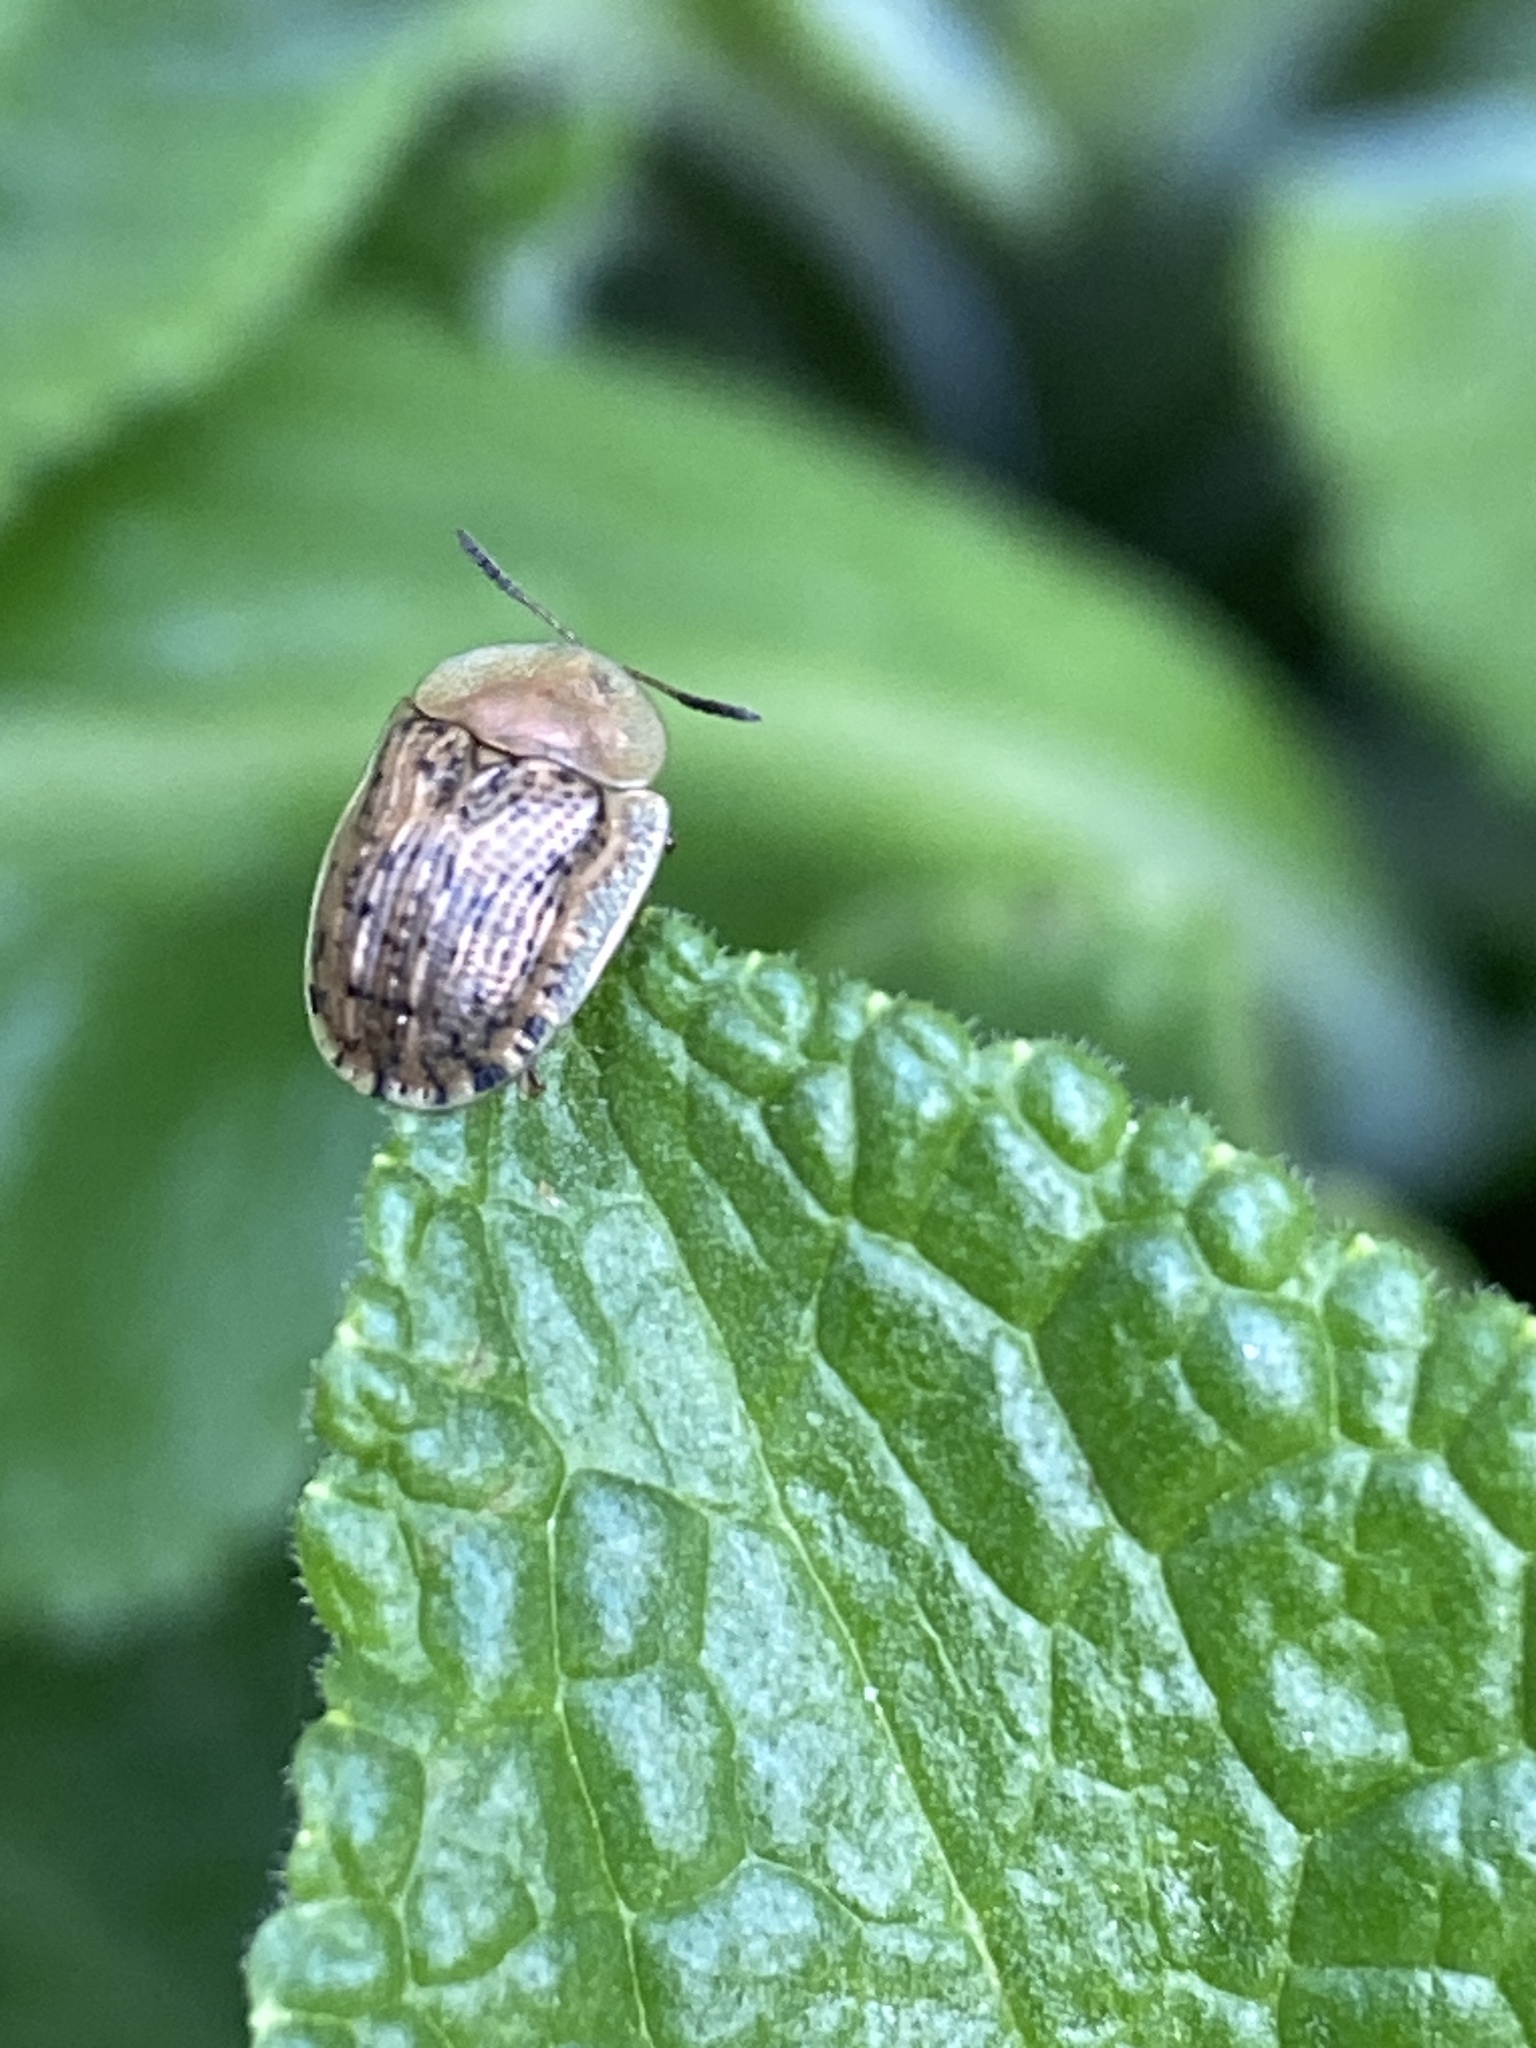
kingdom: Animalia
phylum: Arthropoda
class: Insecta
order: Coleoptera
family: Chrysomelidae
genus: Cassida
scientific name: Cassida nebulosa
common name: Beet tortoise beetle
